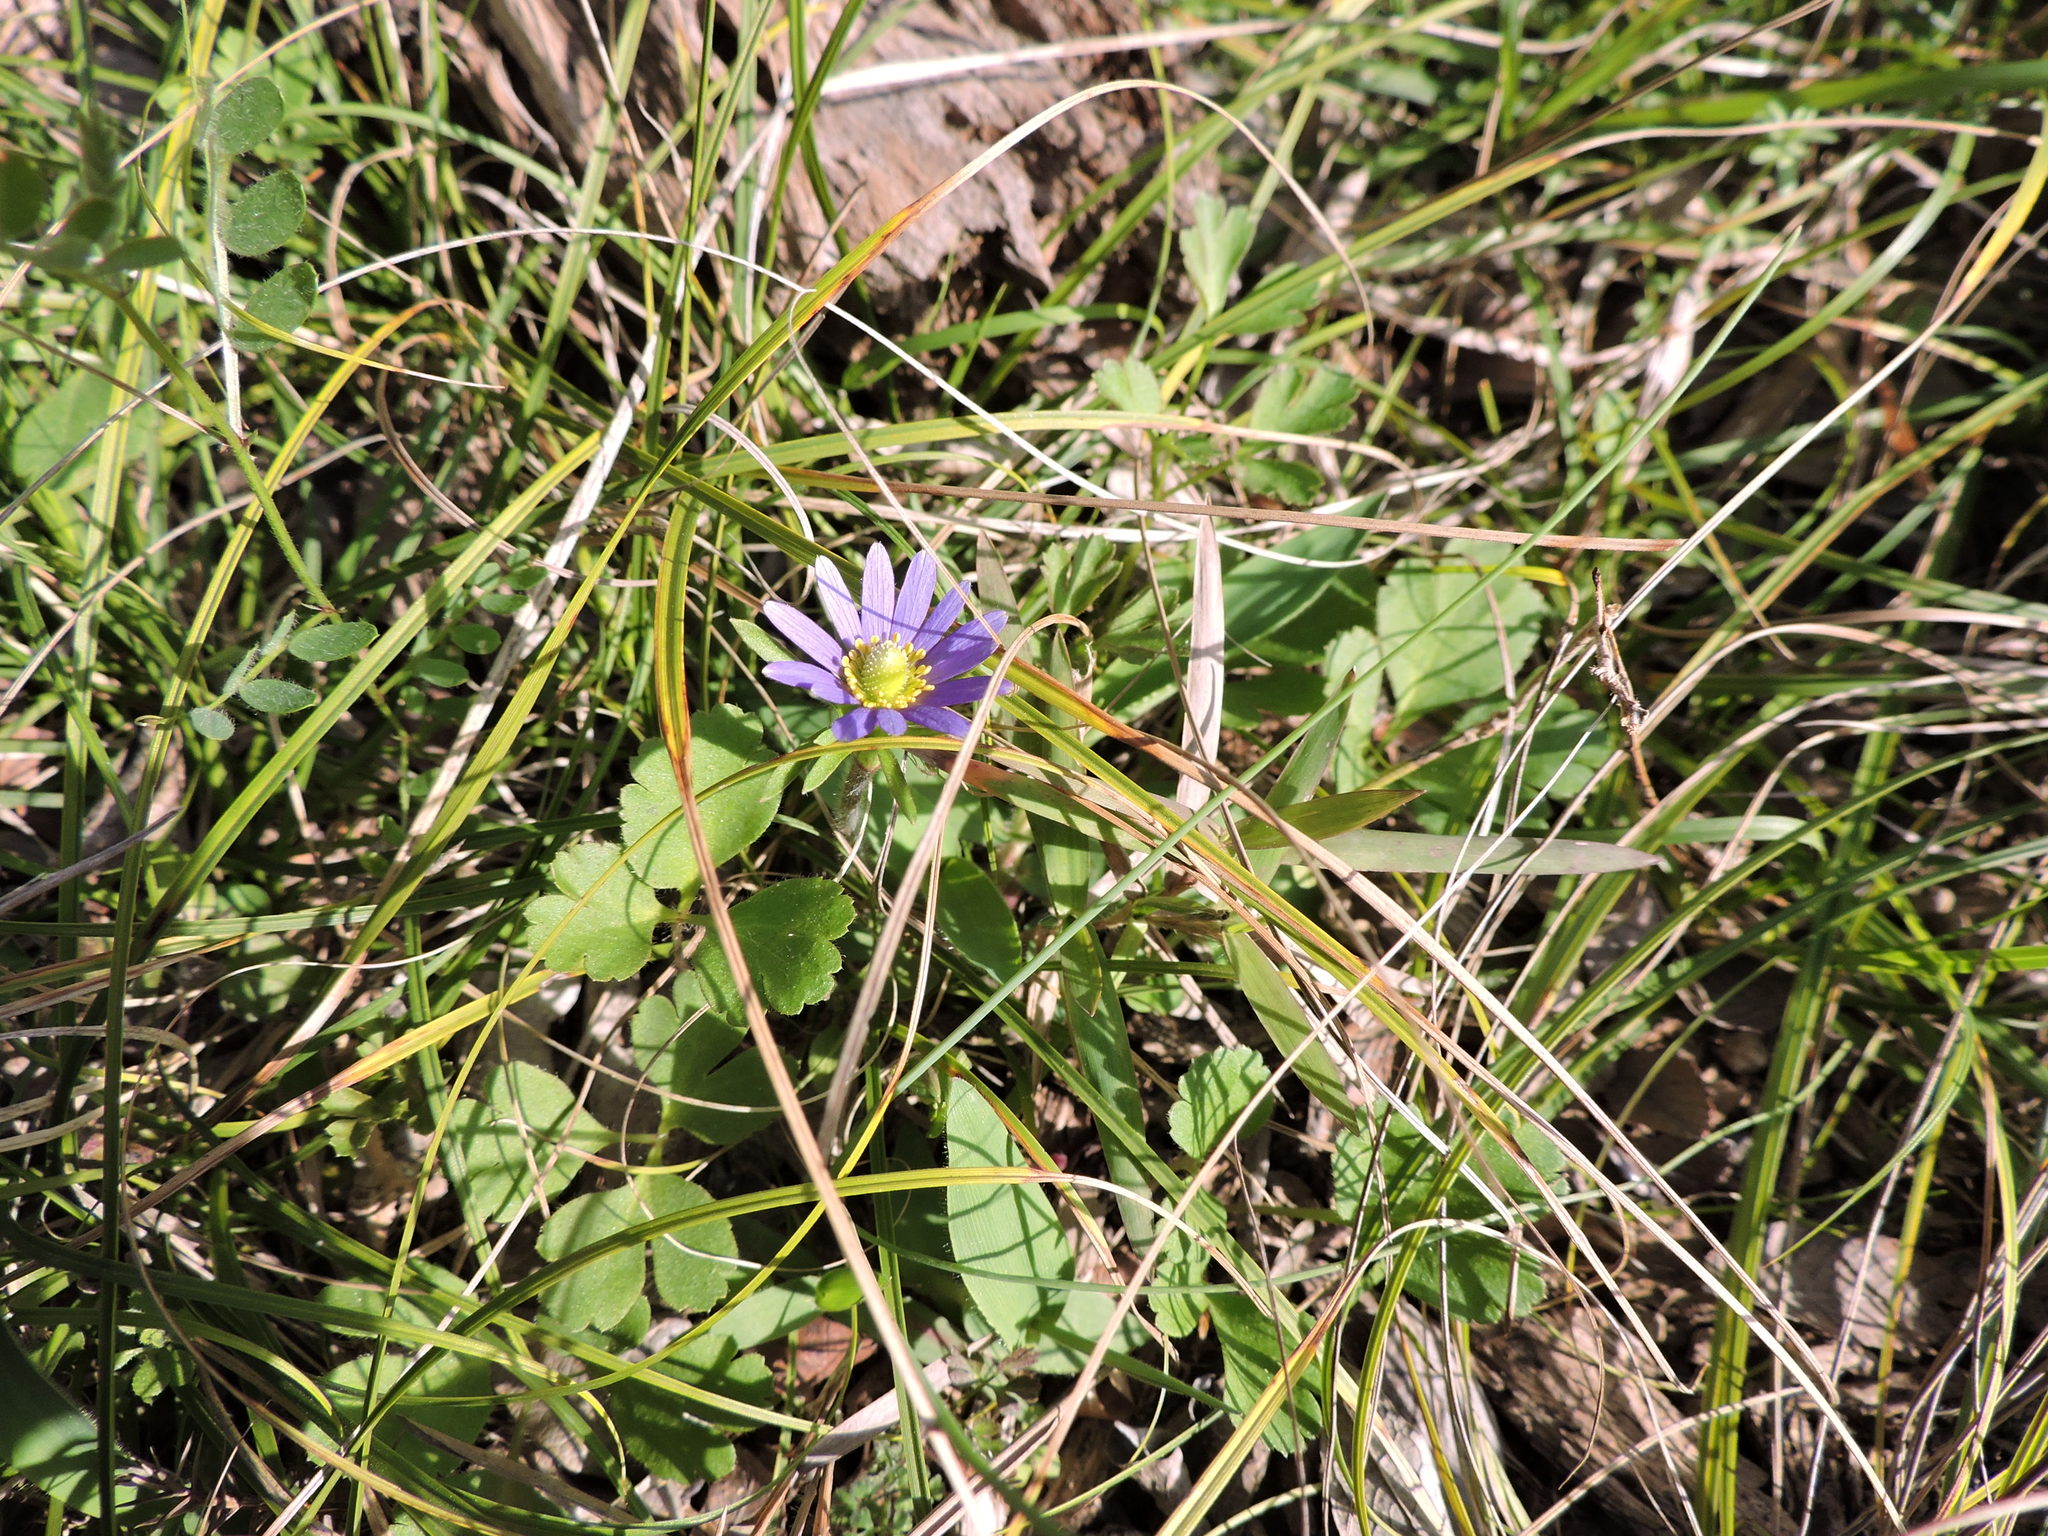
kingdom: Plantae
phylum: Tracheophyta
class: Magnoliopsida
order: Ranunculales
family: Ranunculaceae
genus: Anemone
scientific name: Anemone berlandieri
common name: Ten-petal anemone
